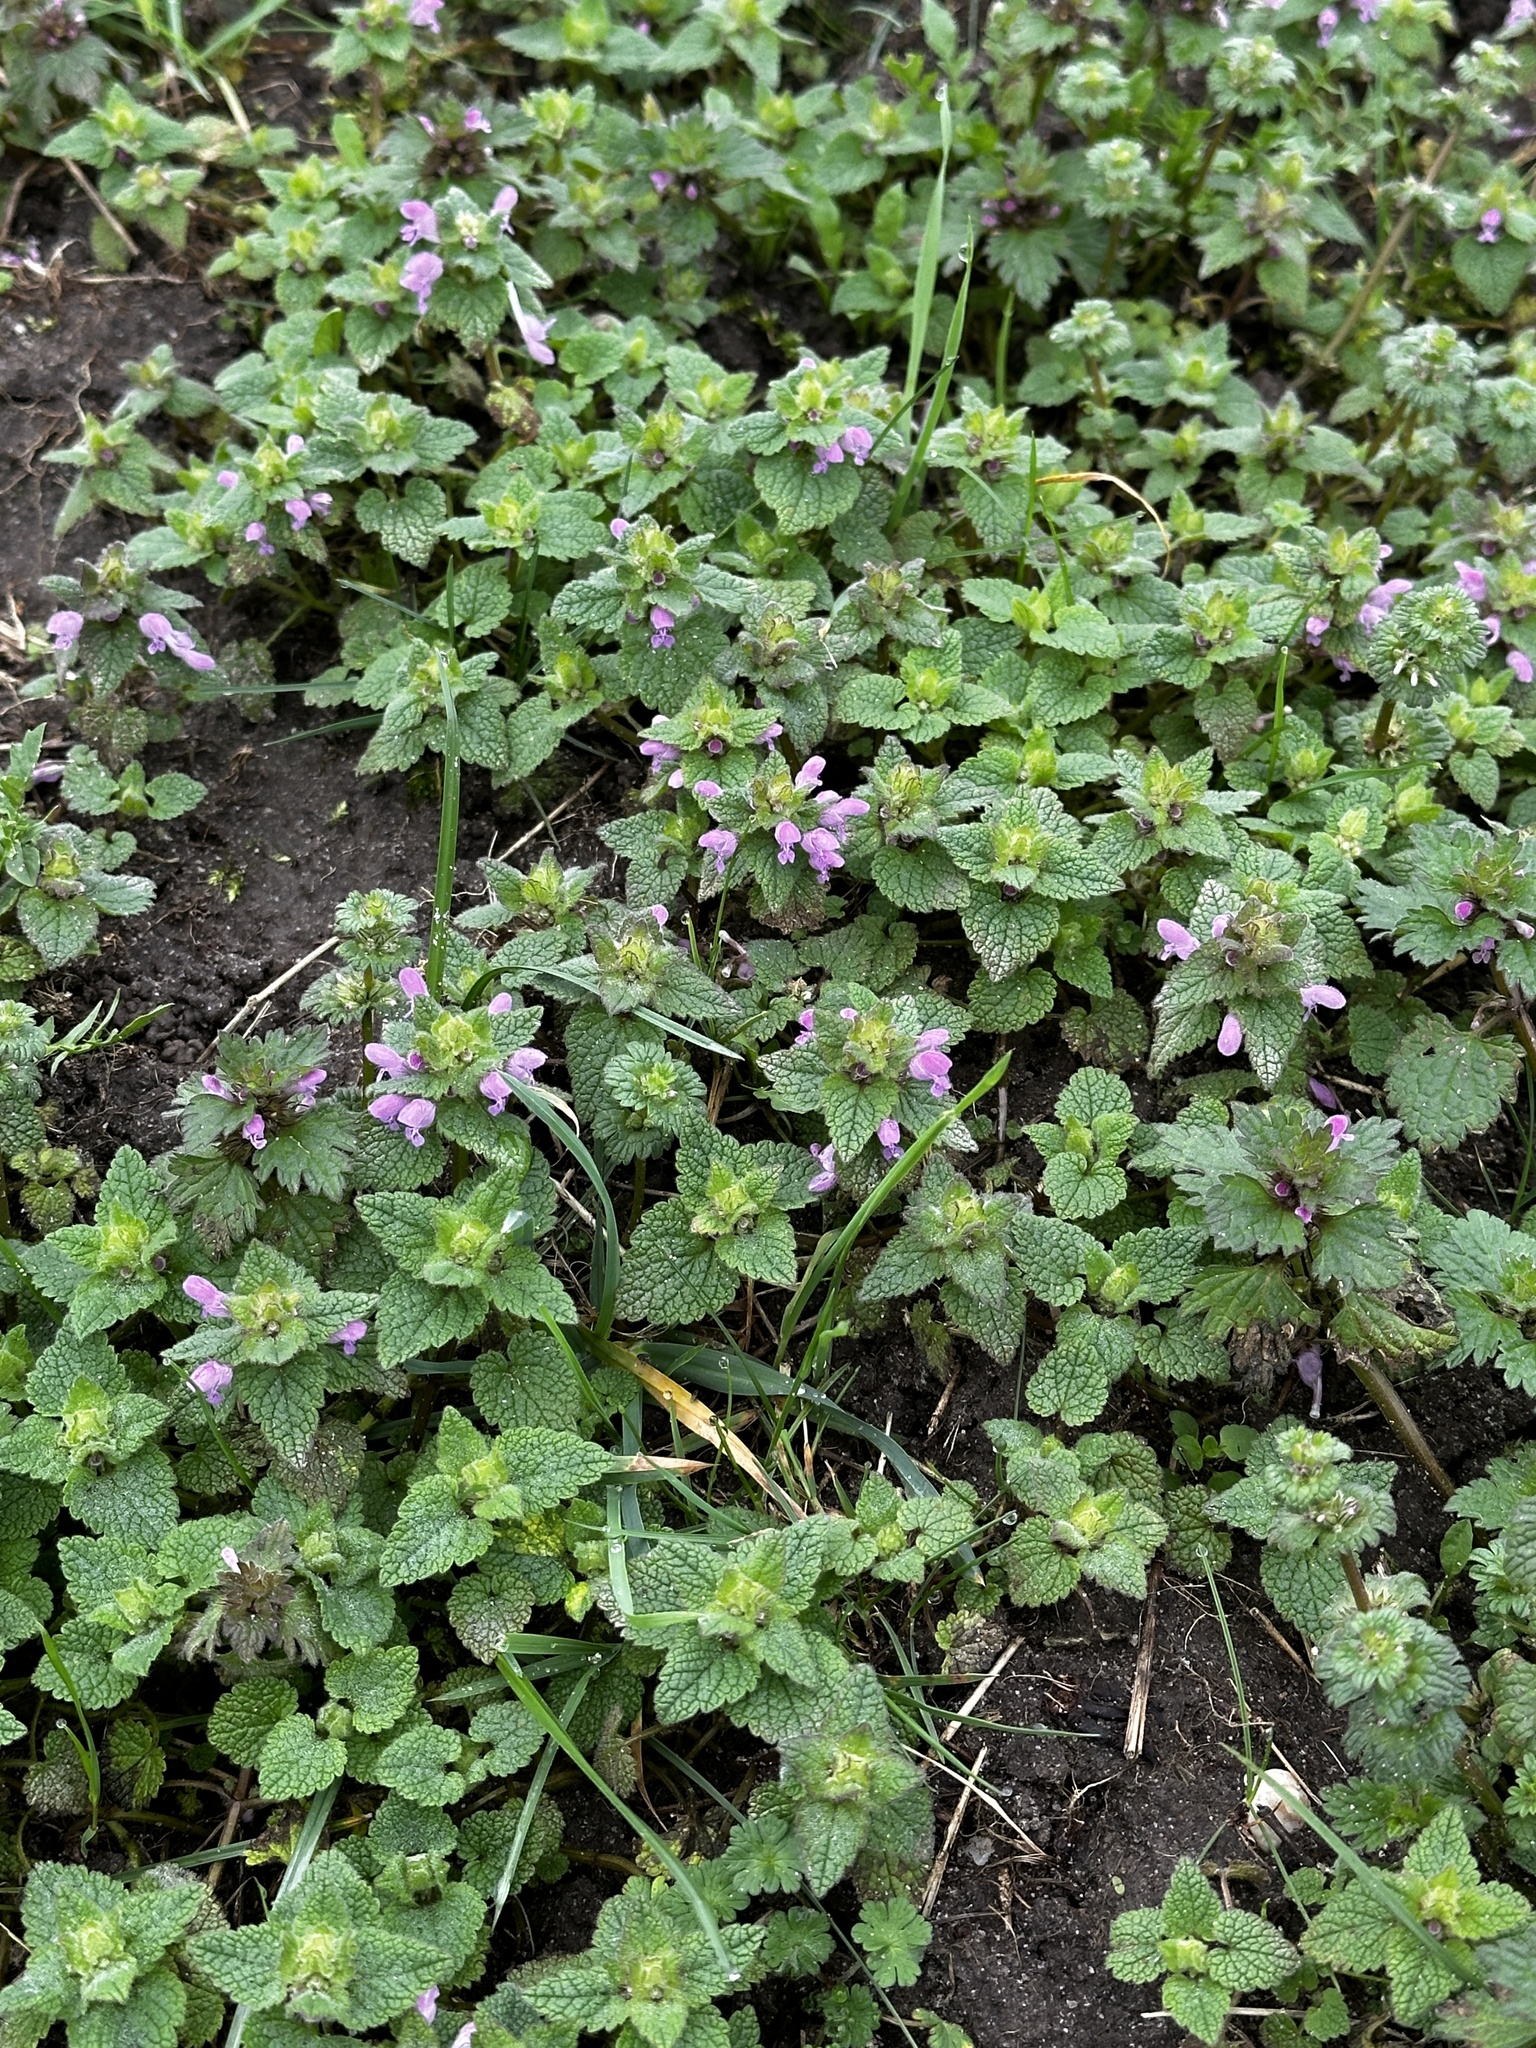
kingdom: Plantae
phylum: Tracheophyta
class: Magnoliopsida
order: Lamiales
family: Lamiaceae
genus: Lamium
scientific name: Lamium purpureum
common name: Red dead-nettle
